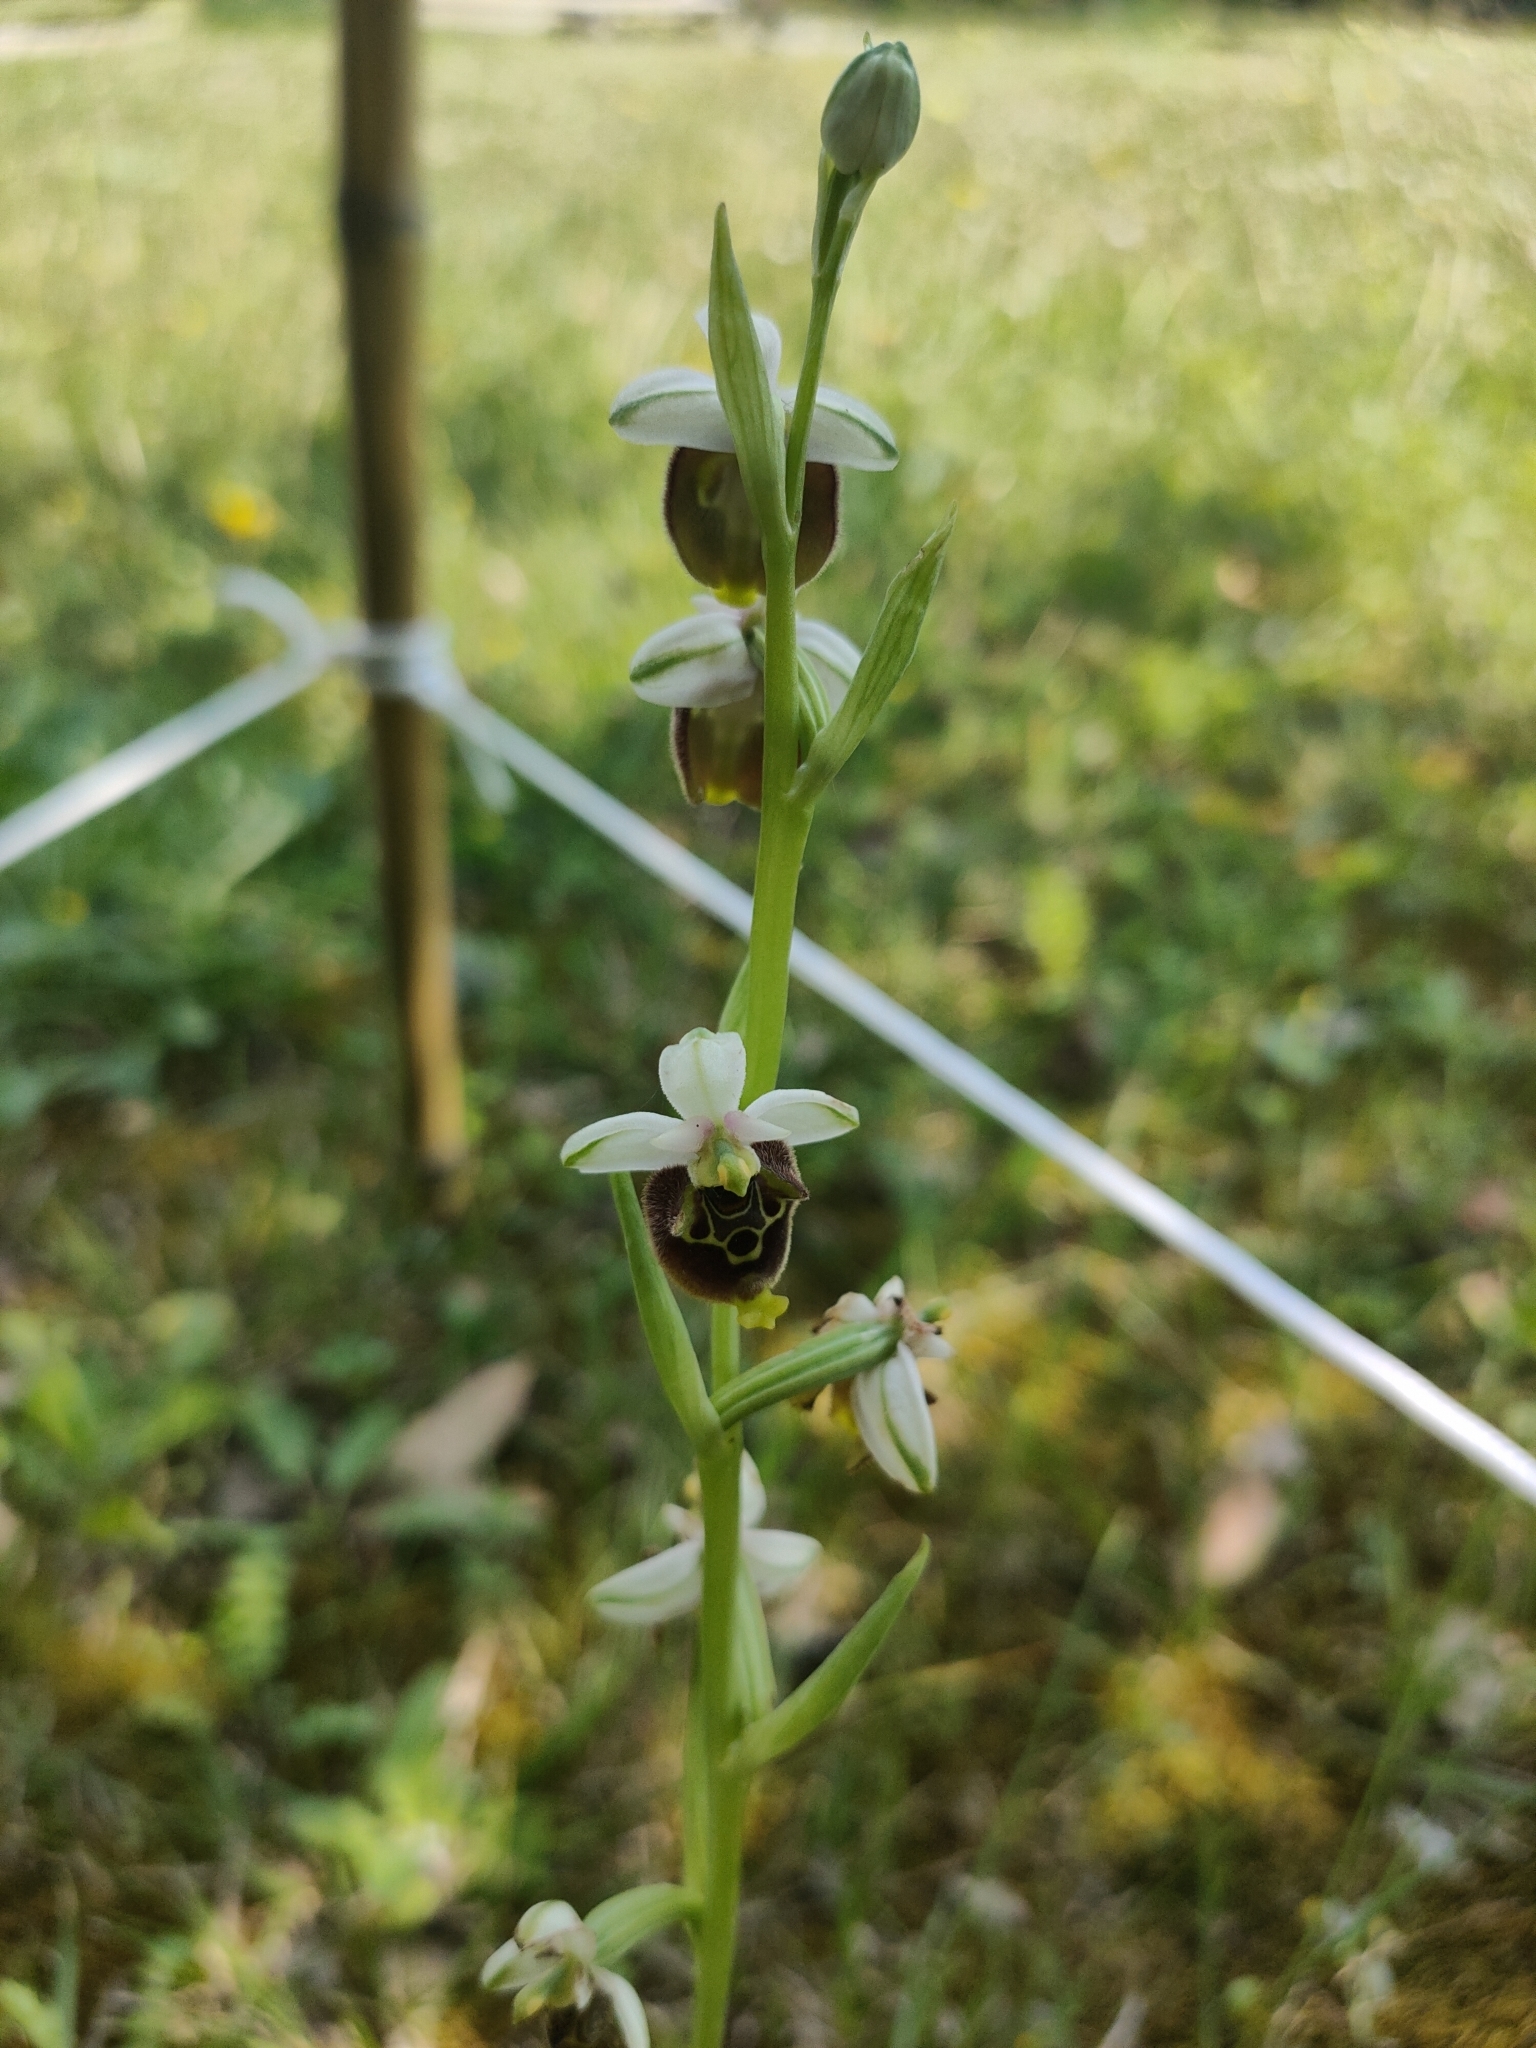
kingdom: Plantae
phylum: Tracheophyta
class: Liliopsida
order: Asparagales
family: Orchidaceae
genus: Ophrys
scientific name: Ophrys holosericea
